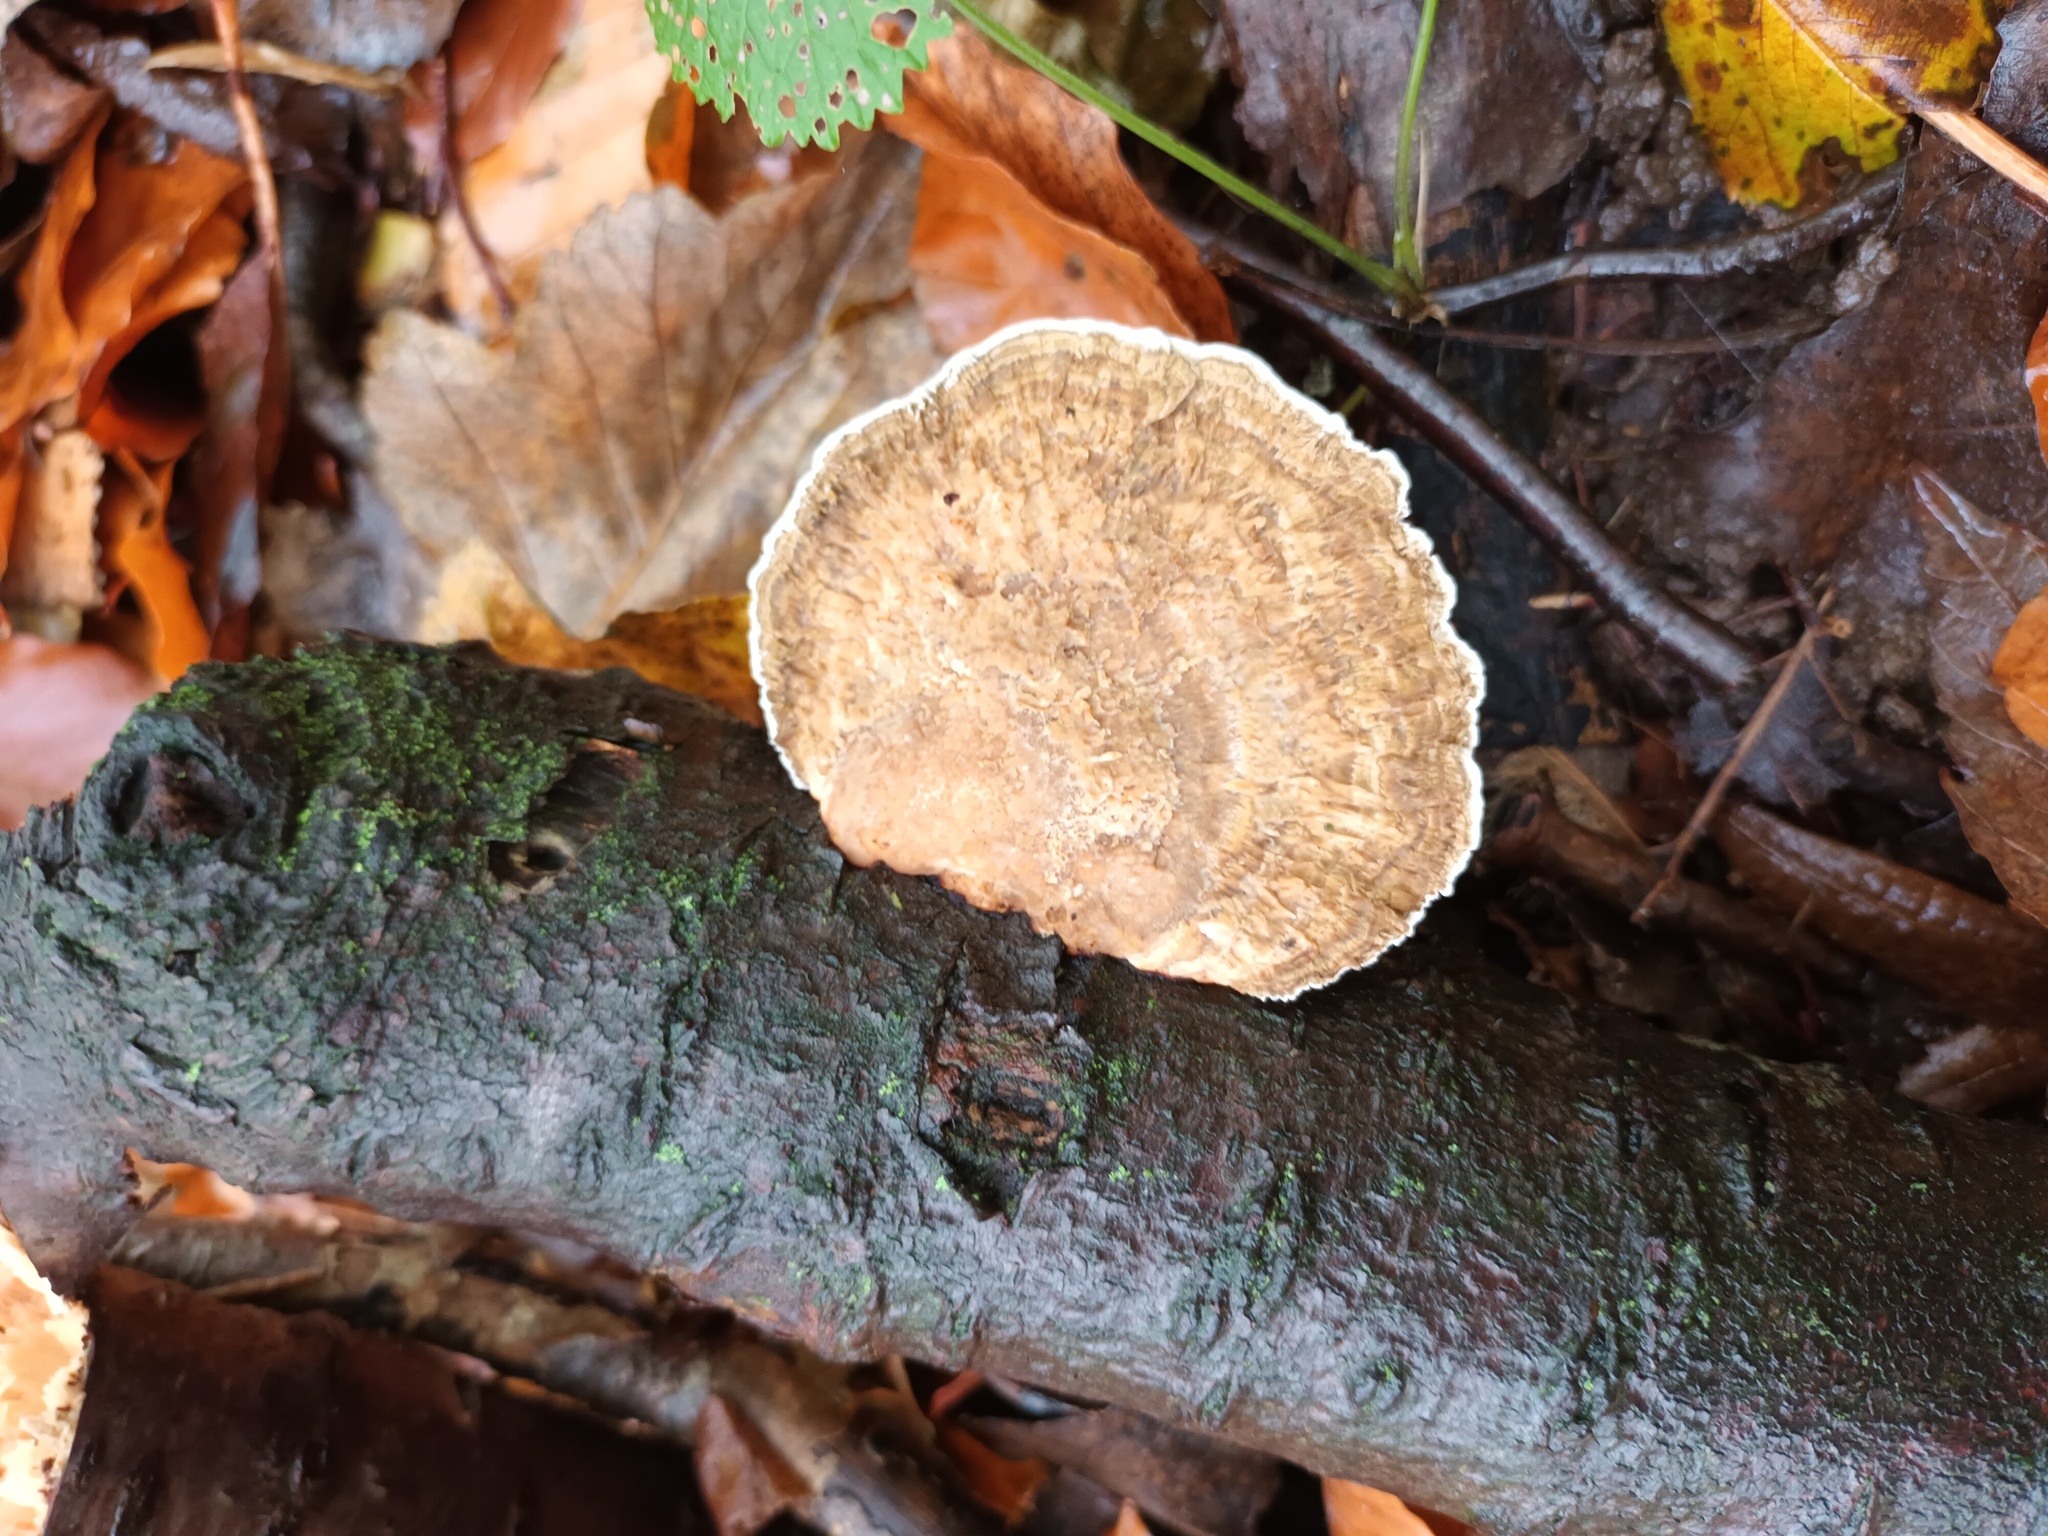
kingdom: Fungi
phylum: Basidiomycota
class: Agaricomycetes
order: Polyporales
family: Polyporaceae
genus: Daedaleopsis
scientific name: Daedaleopsis confragosa
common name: Blushing bracket
